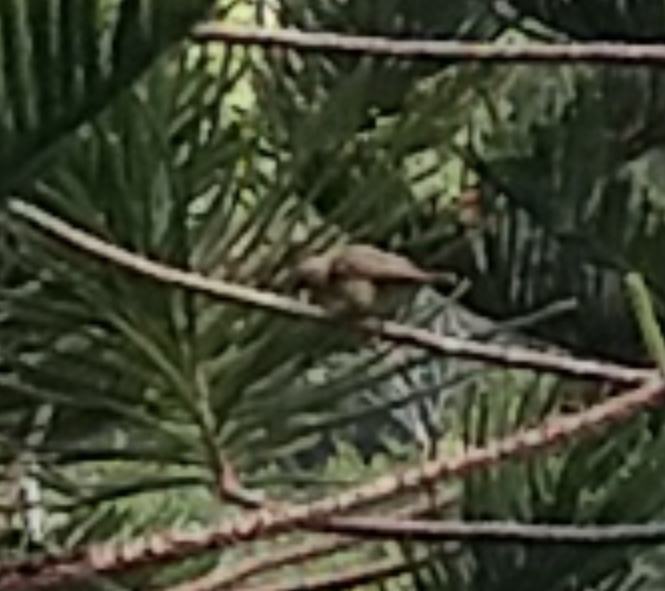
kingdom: Animalia
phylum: Chordata
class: Aves
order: Passeriformes
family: Fringillidae
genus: Chlorodrepanis
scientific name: Chlorodrepanis flava
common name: Oahu amakihi
